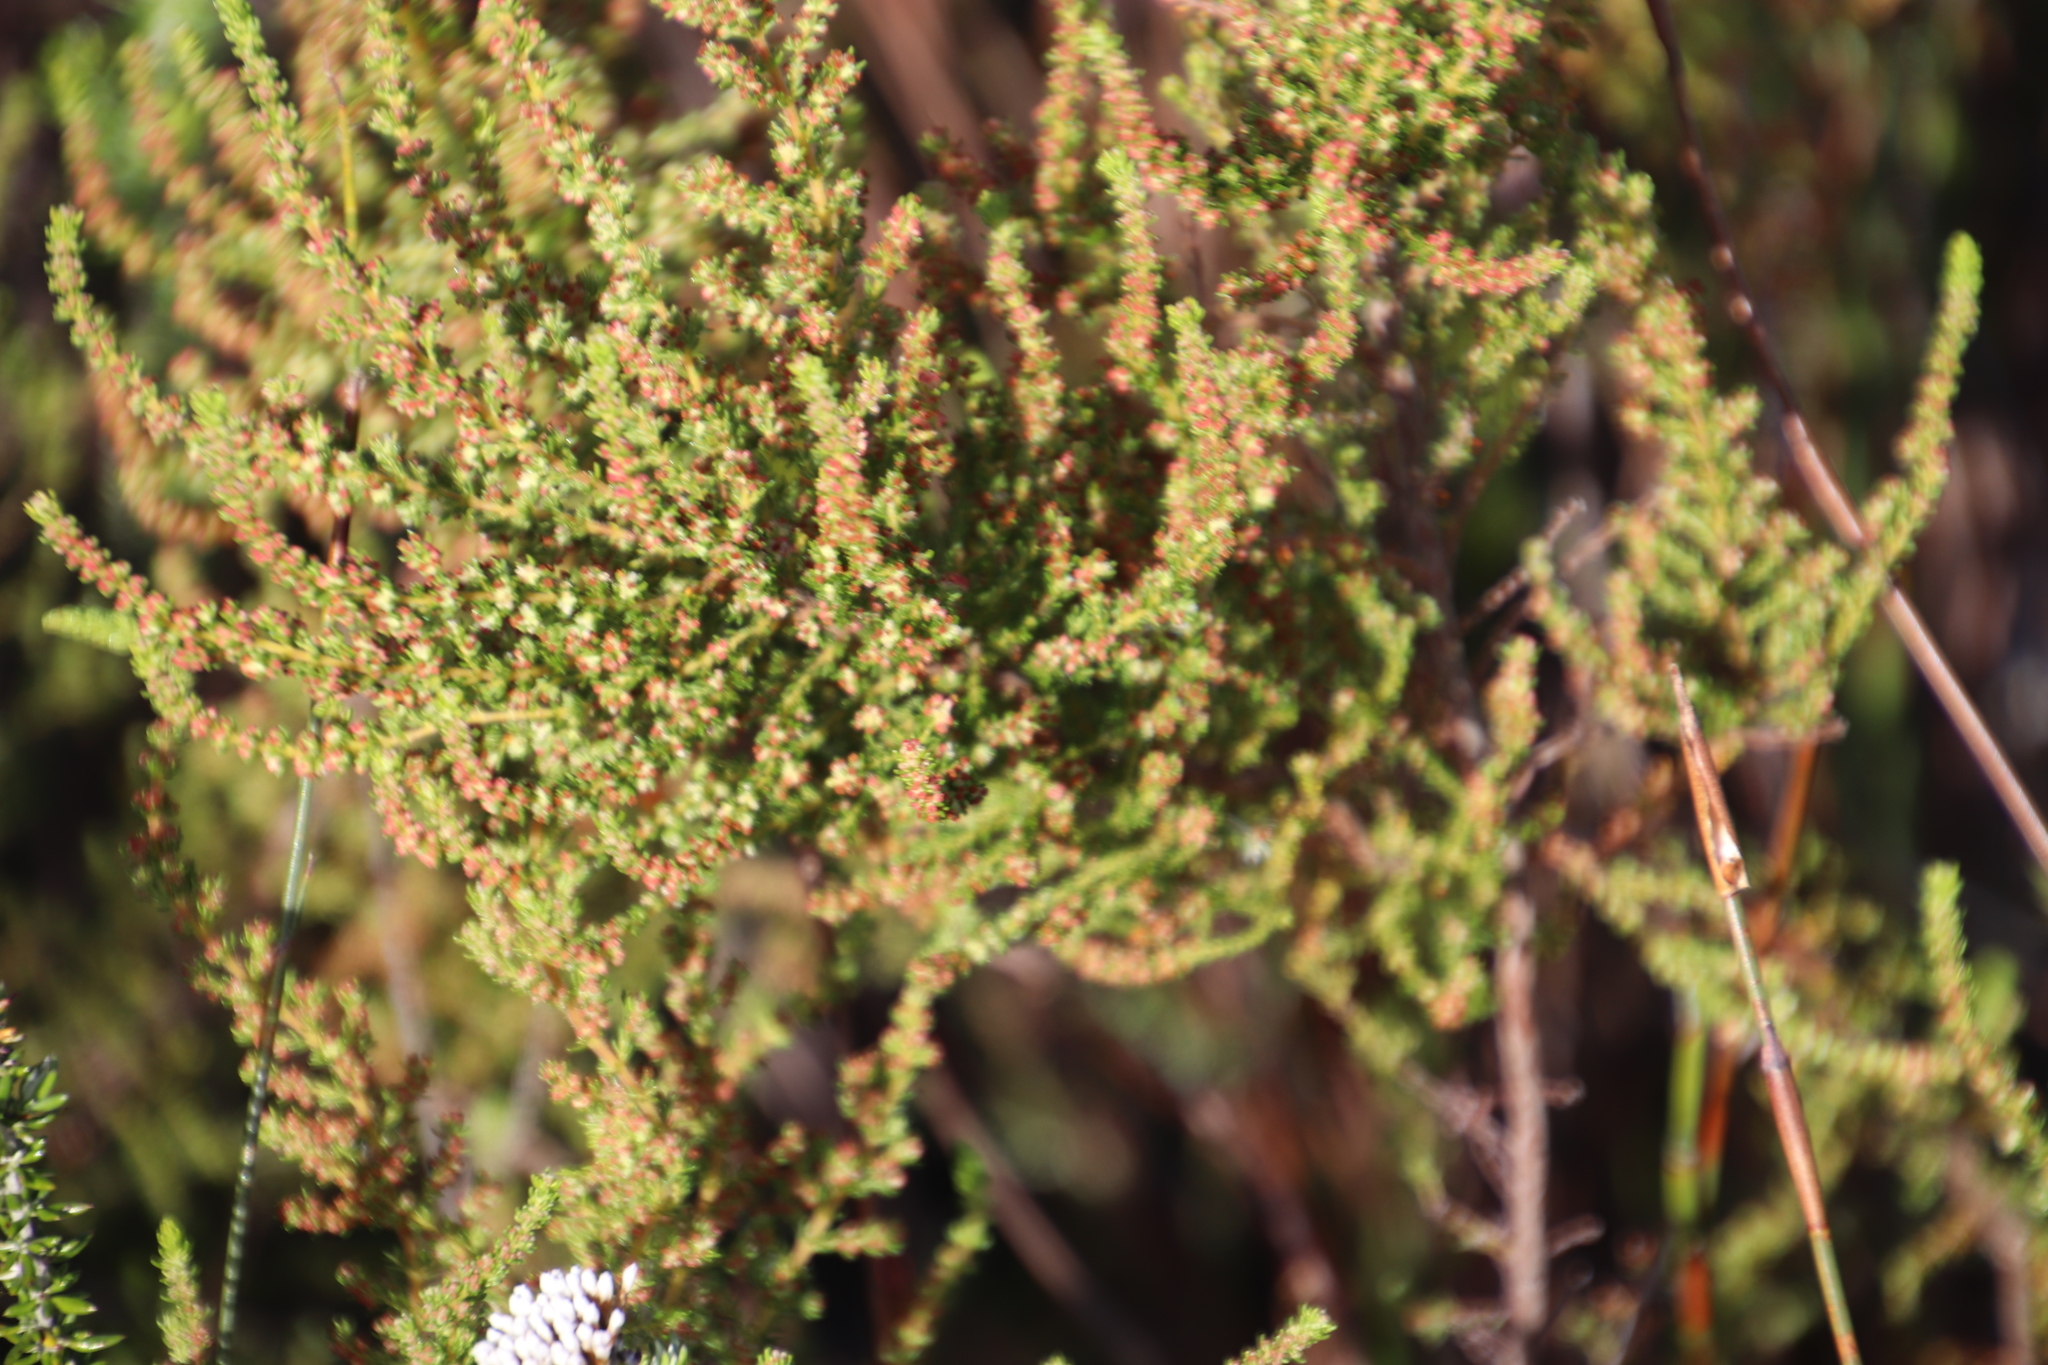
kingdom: Plantae
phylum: Tracheophyta
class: Magnoliopsida
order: Ericales
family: Ericaceae
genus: Erica
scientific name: Erica muscosa
